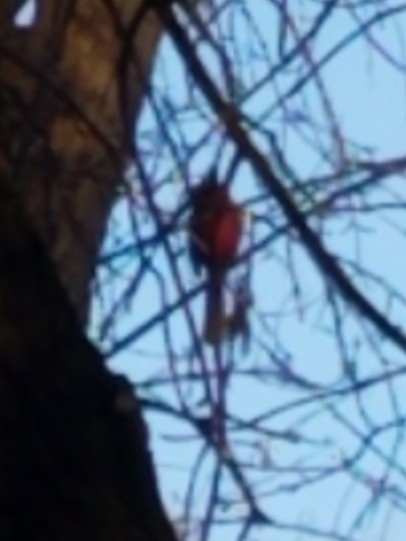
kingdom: Animalia
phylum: Chordata
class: Aves
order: Passeriformes
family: Cardinalidae
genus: Cardinalis
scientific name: Cardinalis cardinalis
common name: Northern cardinal
